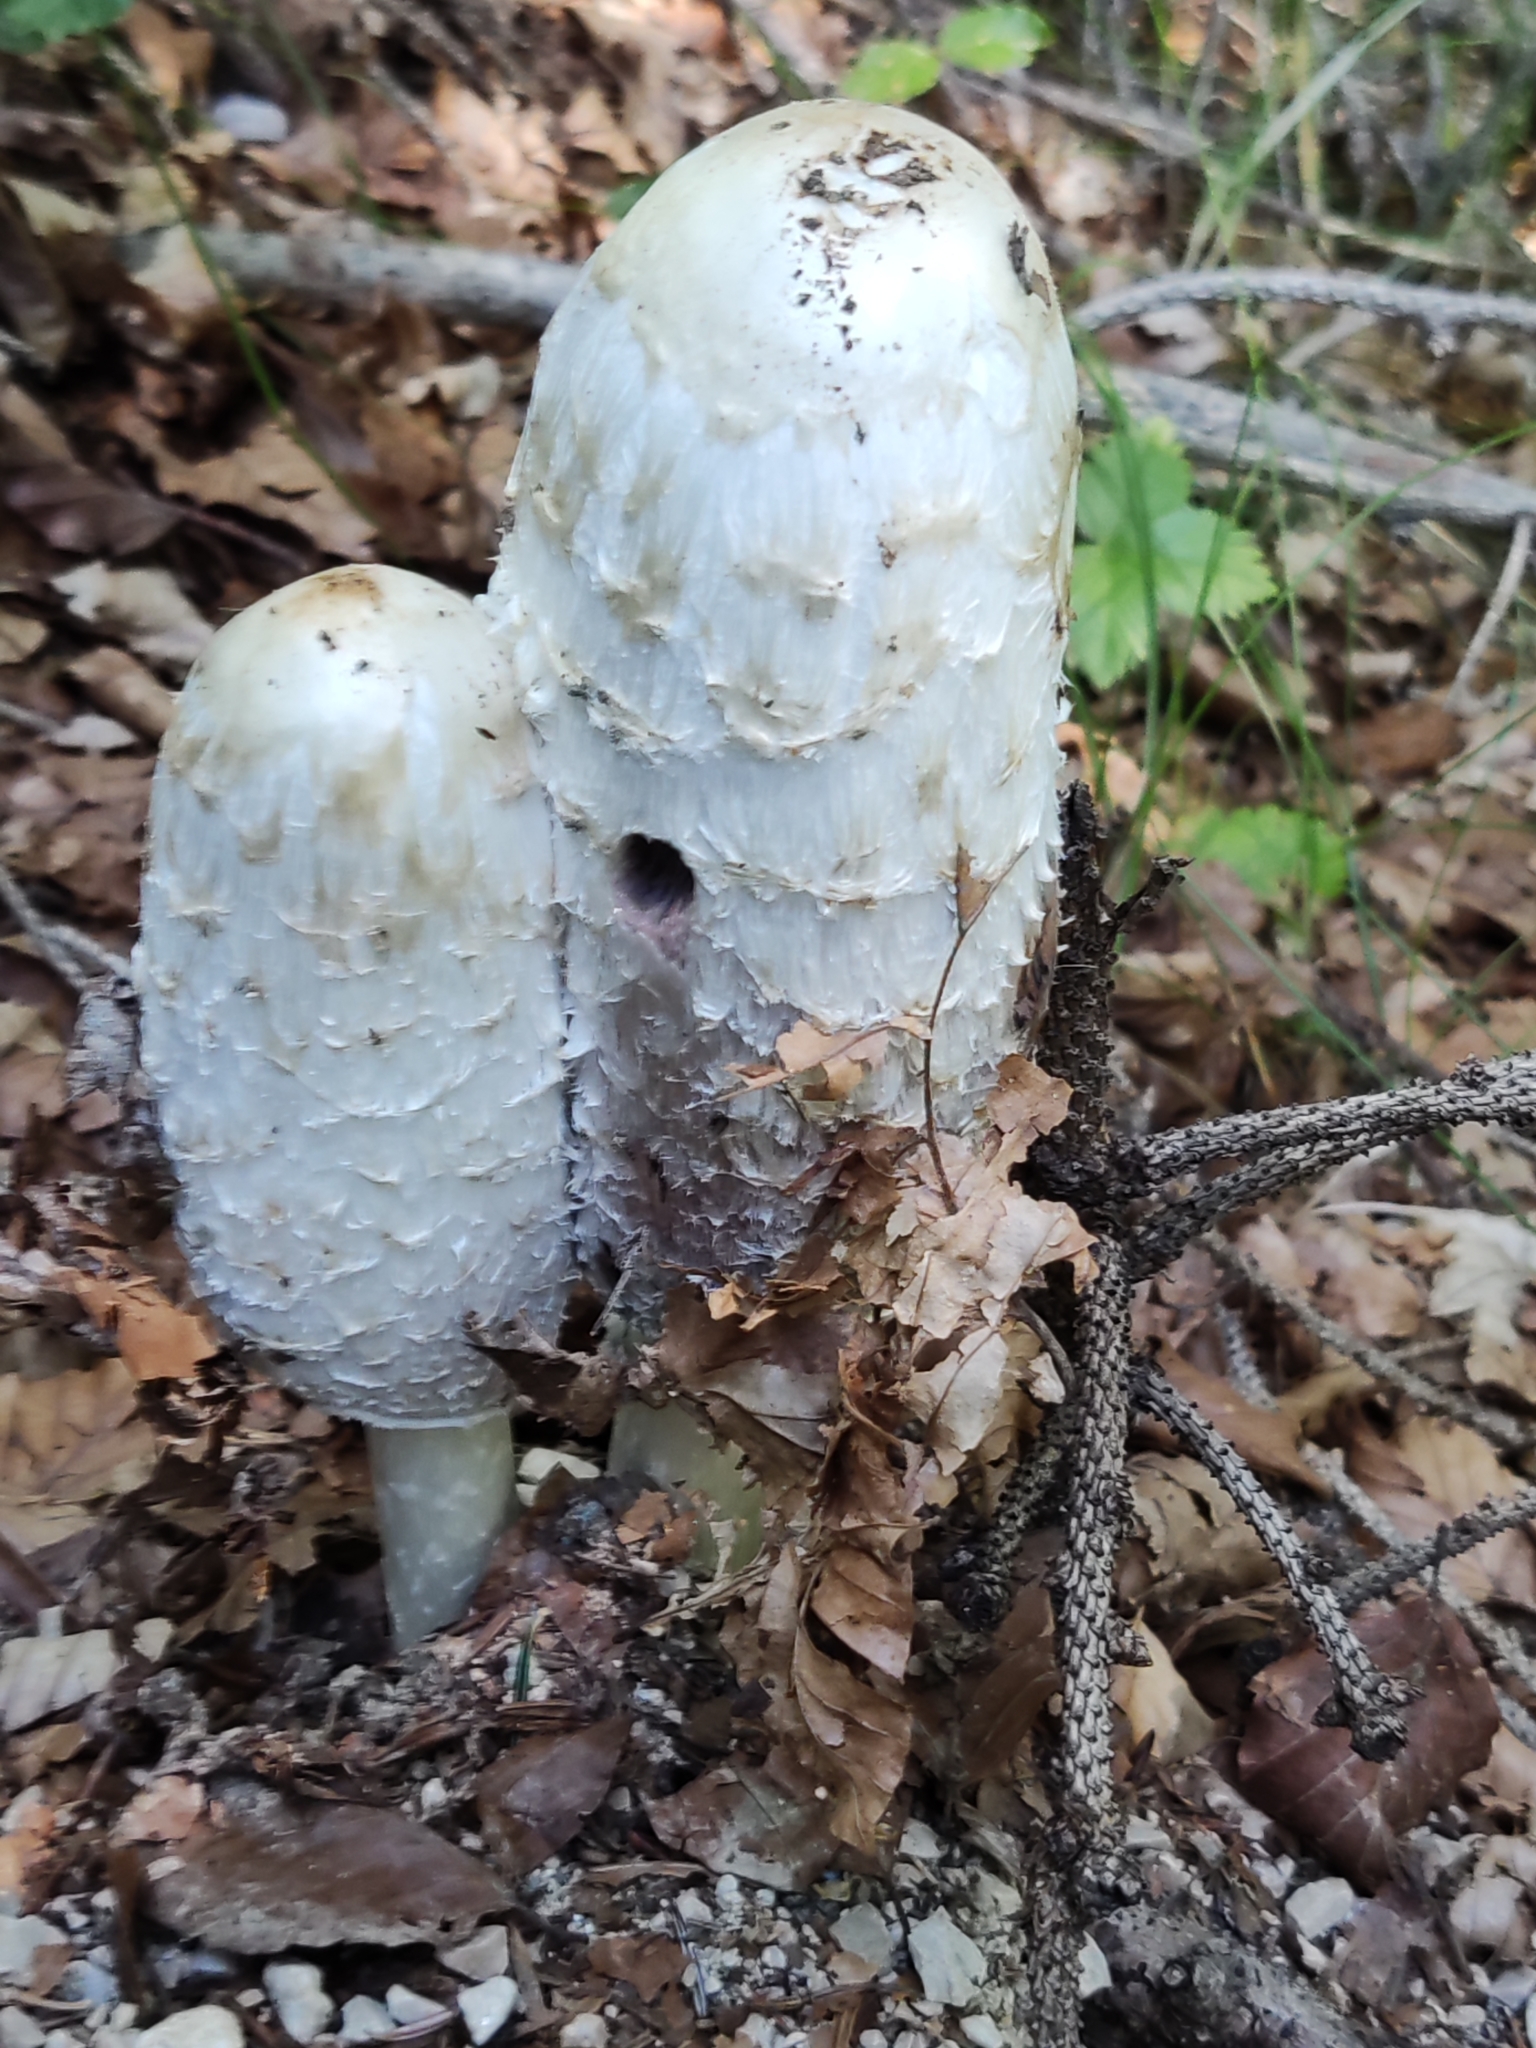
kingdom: Fungi
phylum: Basidiomycota
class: Agaricomycetes
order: Agaricales
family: Agaricaceae
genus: Coprinus
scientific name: Coprinus comatus
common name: Lawyer's wig
